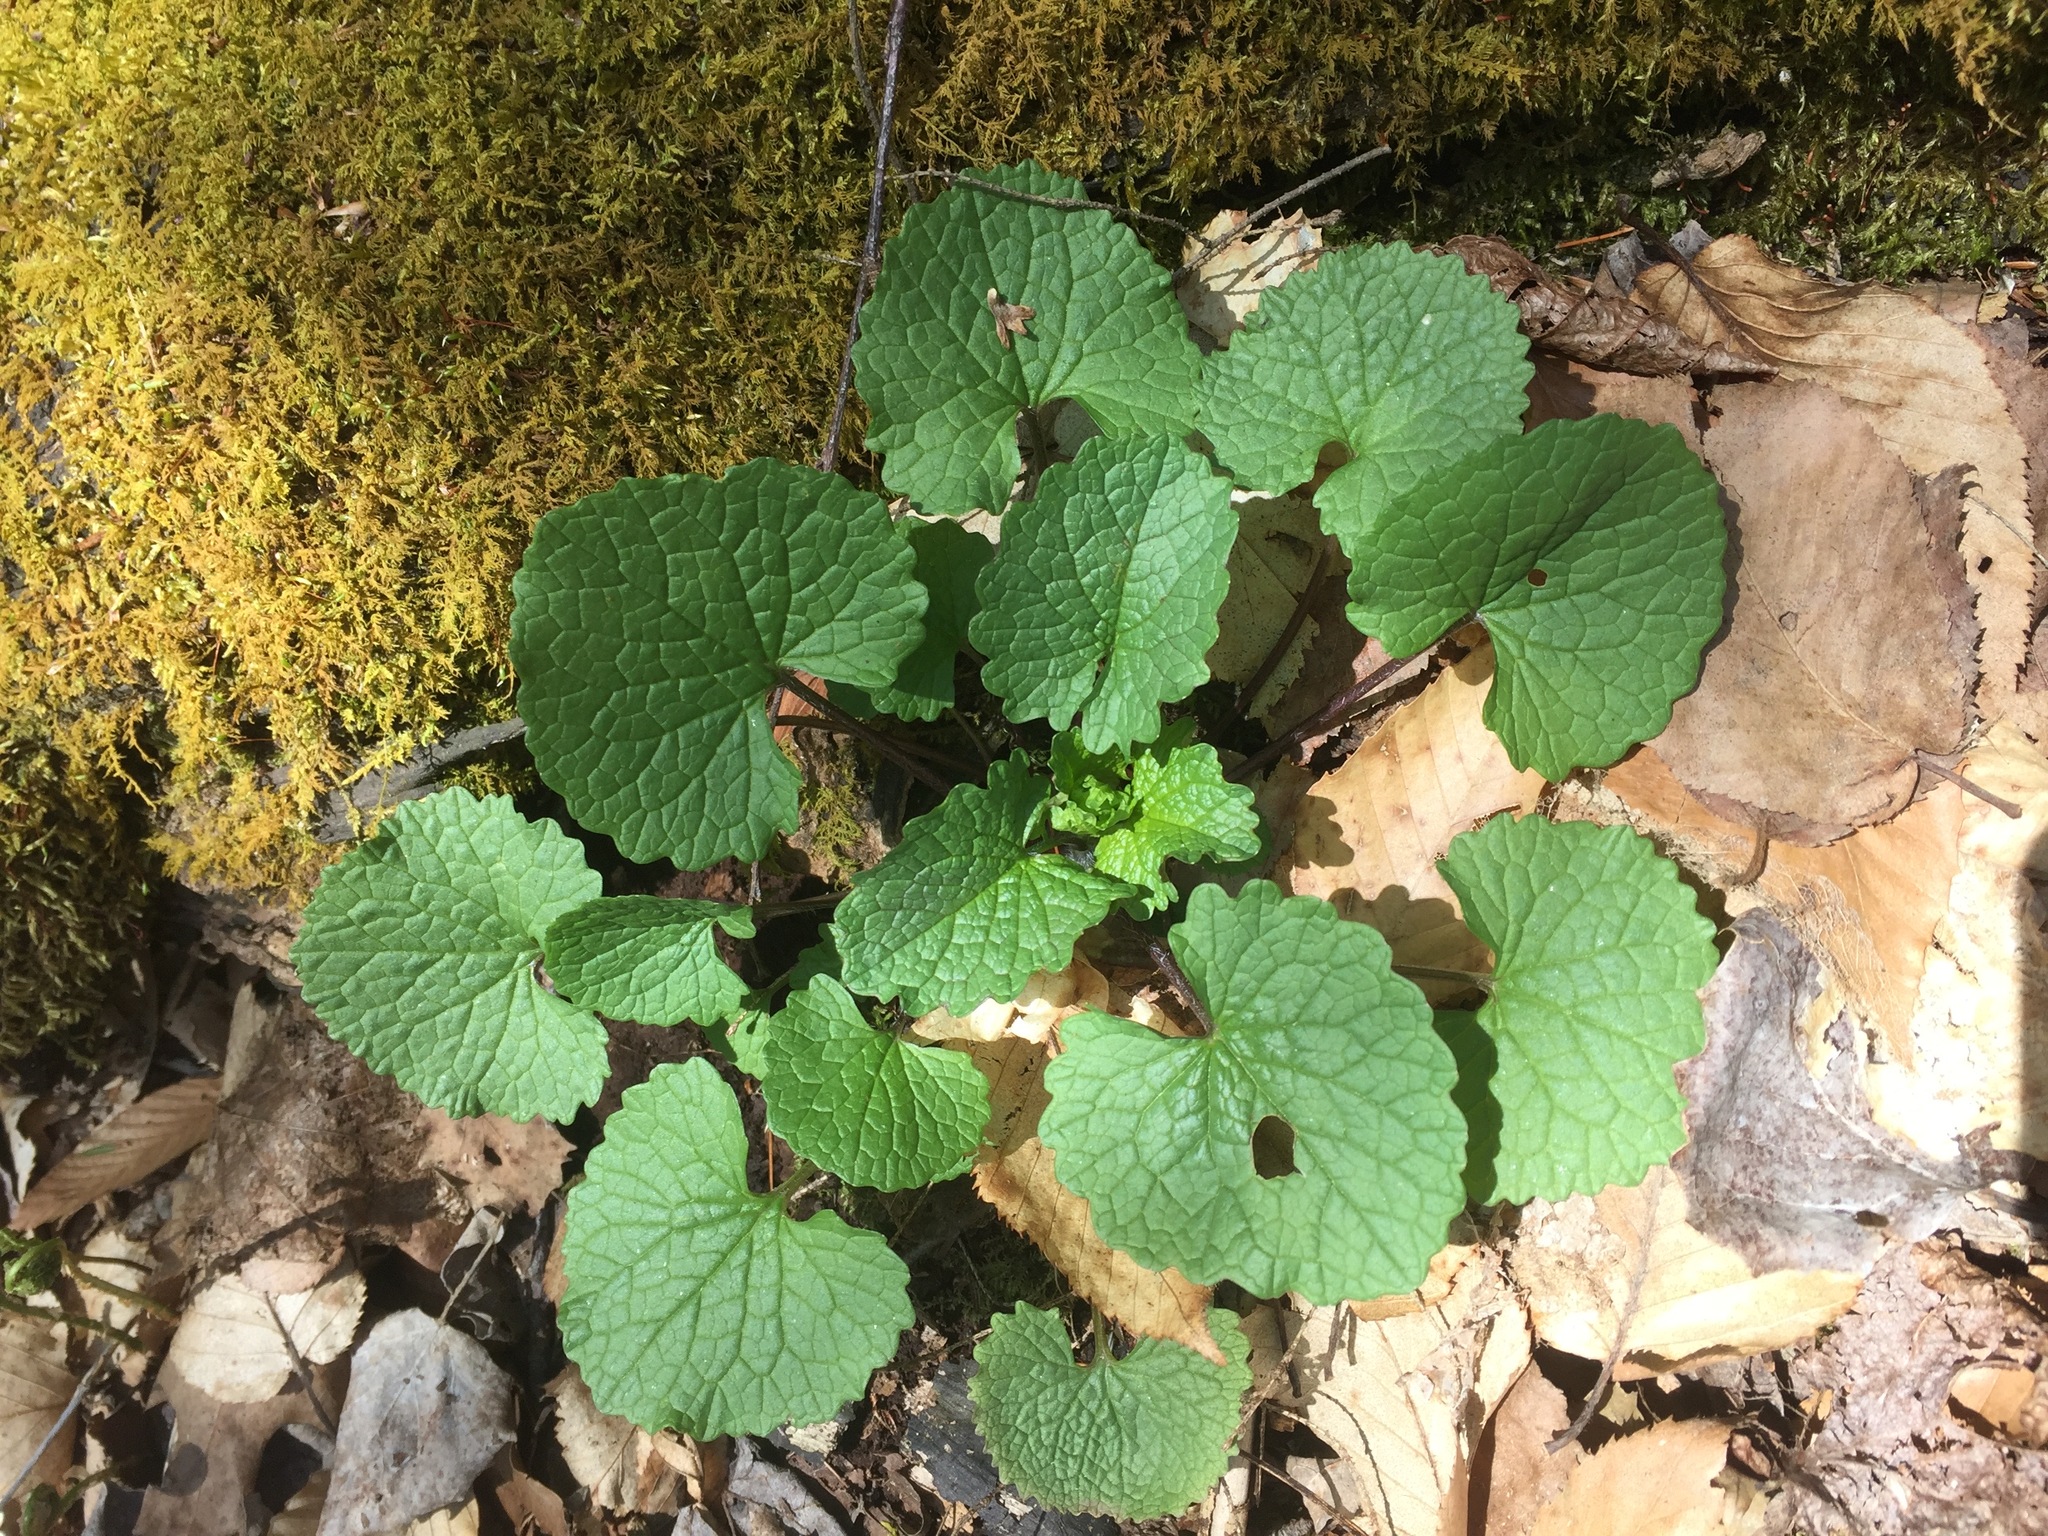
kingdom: Plantae
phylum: Tracheophyta
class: Magnoliopsida
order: Brassicales
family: Brassicaceae
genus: Alliaria
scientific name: Alliaria petiolata
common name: Garlic mustard
